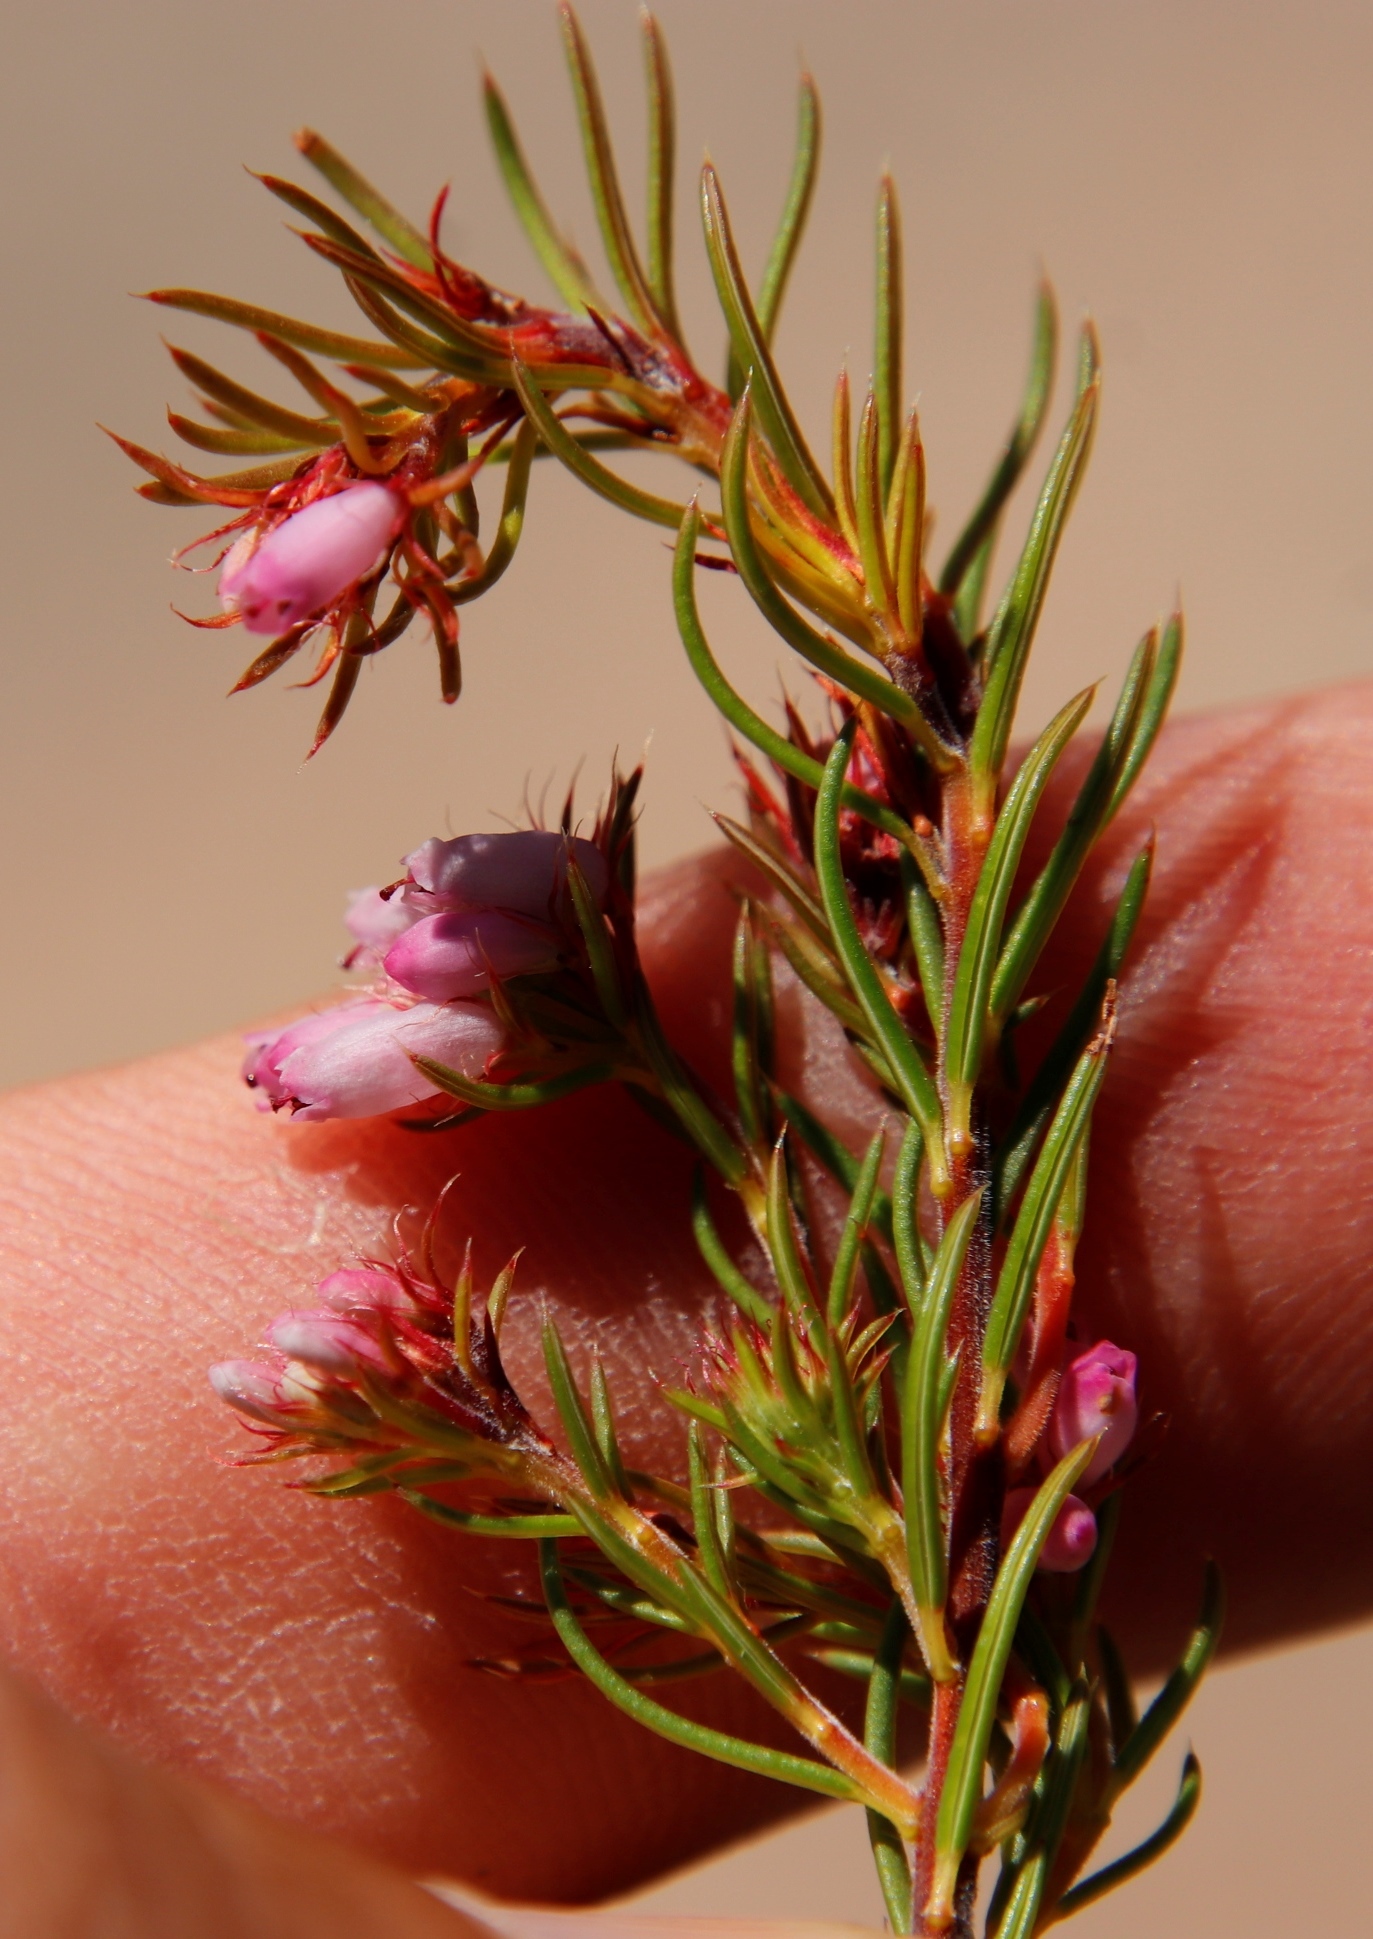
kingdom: Plantae
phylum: Tracheophyta
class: Magnoliopsida
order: Ericales
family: Ericaceae
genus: Erica
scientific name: Erica subulata
